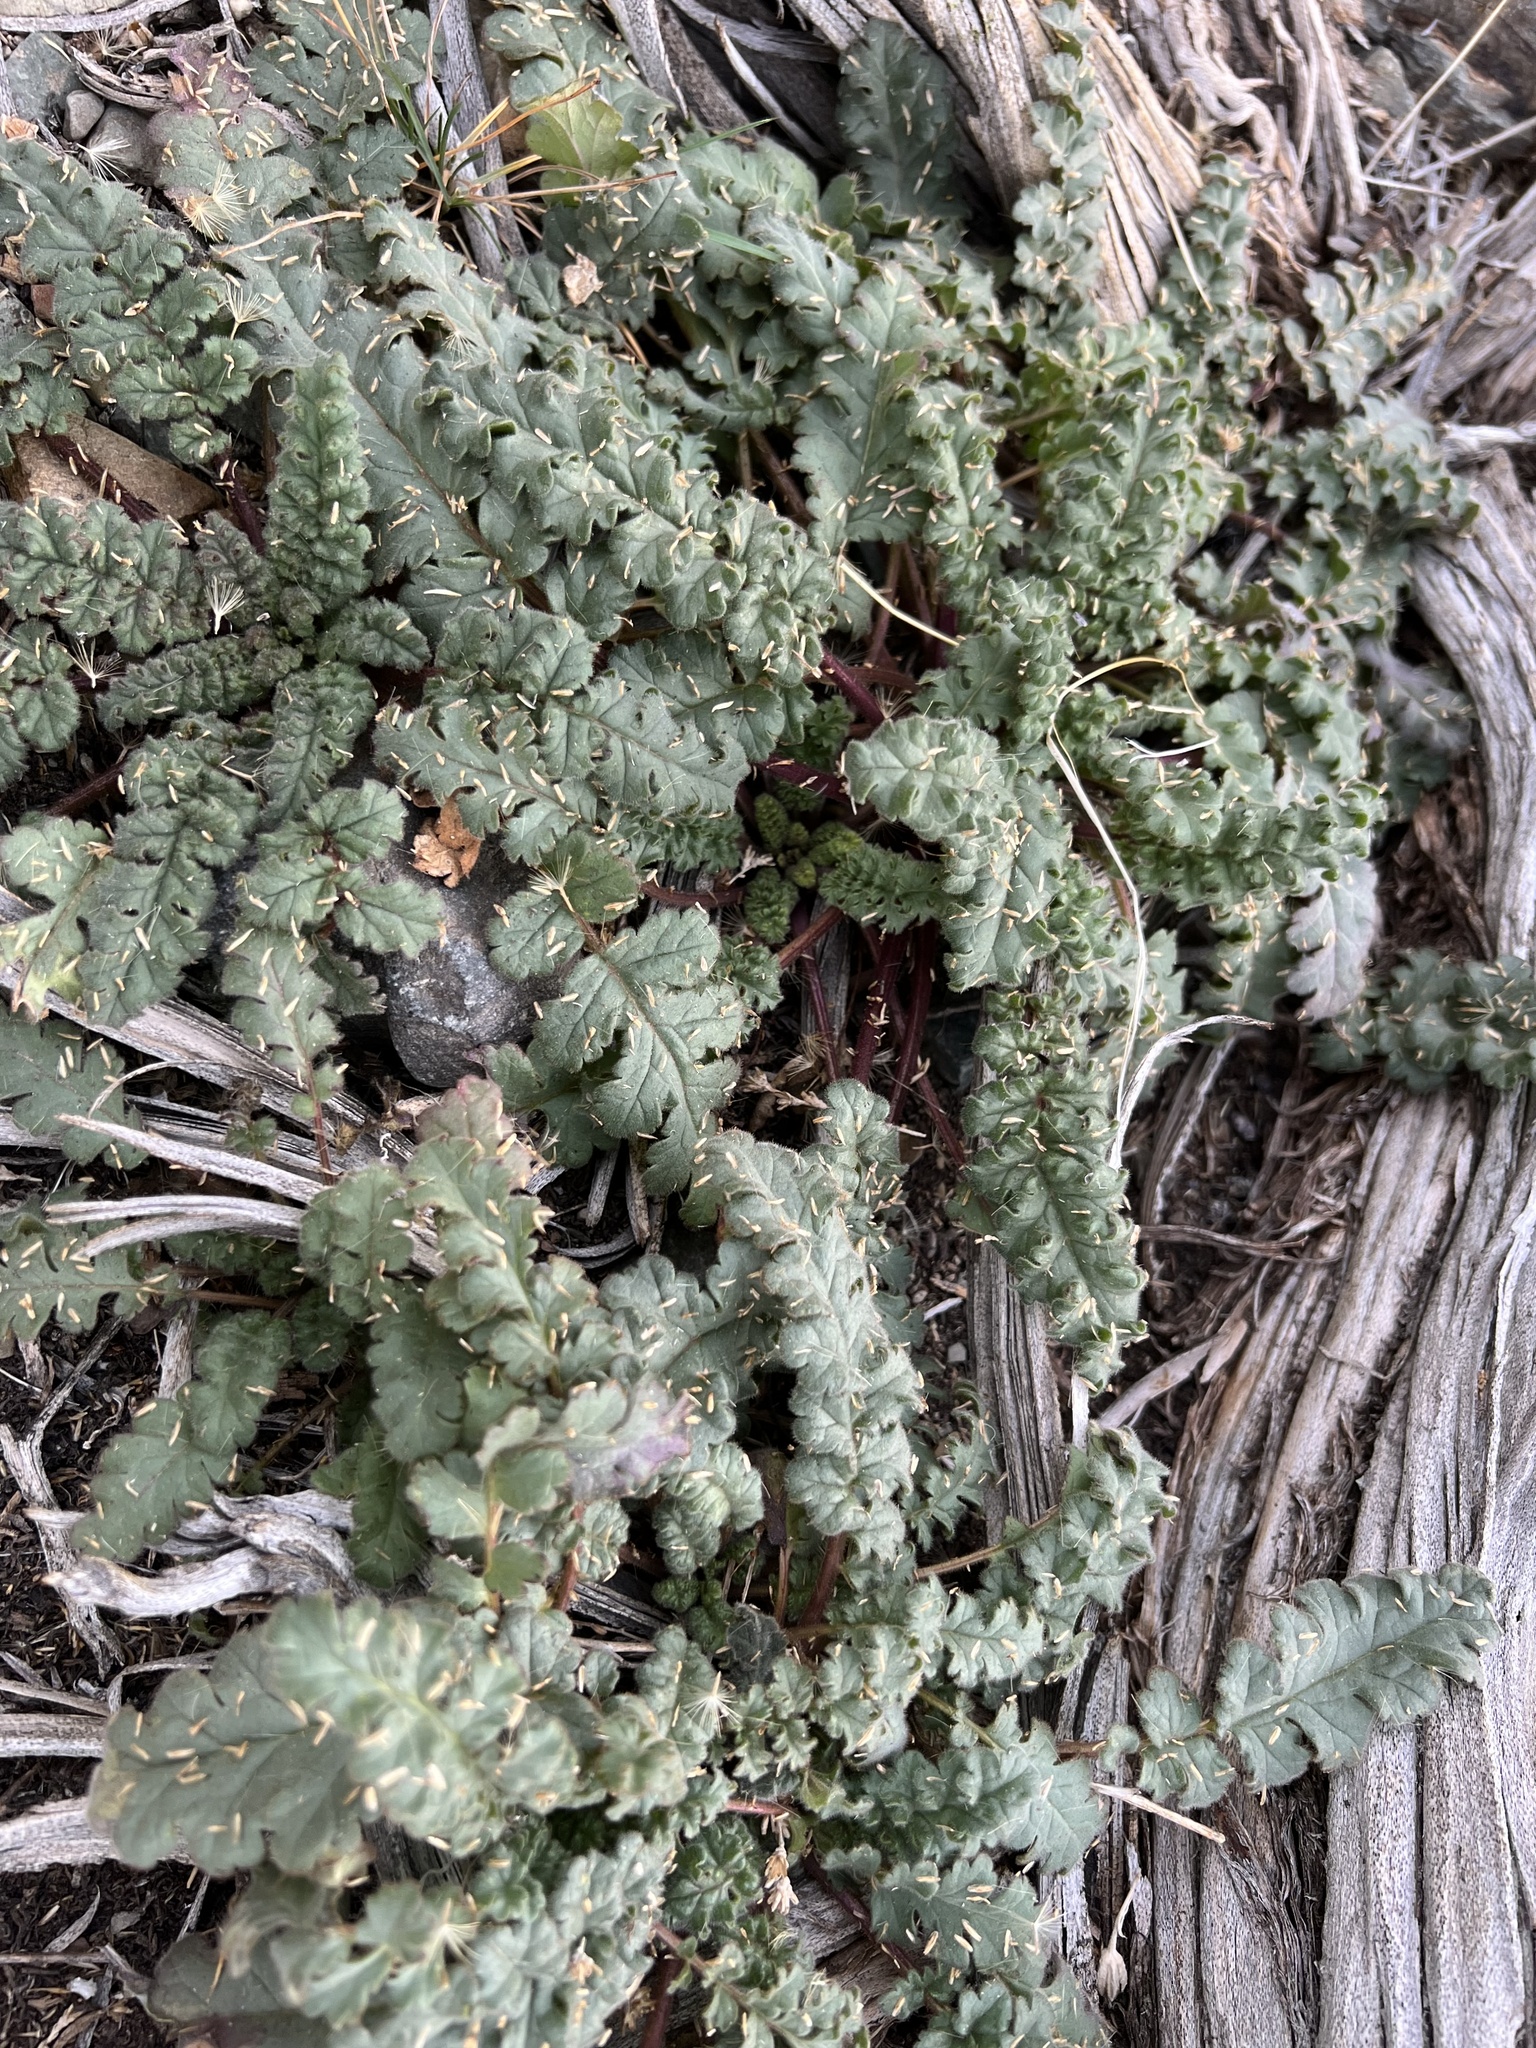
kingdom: Plantae
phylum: Tracheophyta
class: Magnoliopsida
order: Boraginales
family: Hydrophyllaceae
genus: Phacelia
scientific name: Phacelia crenulata
